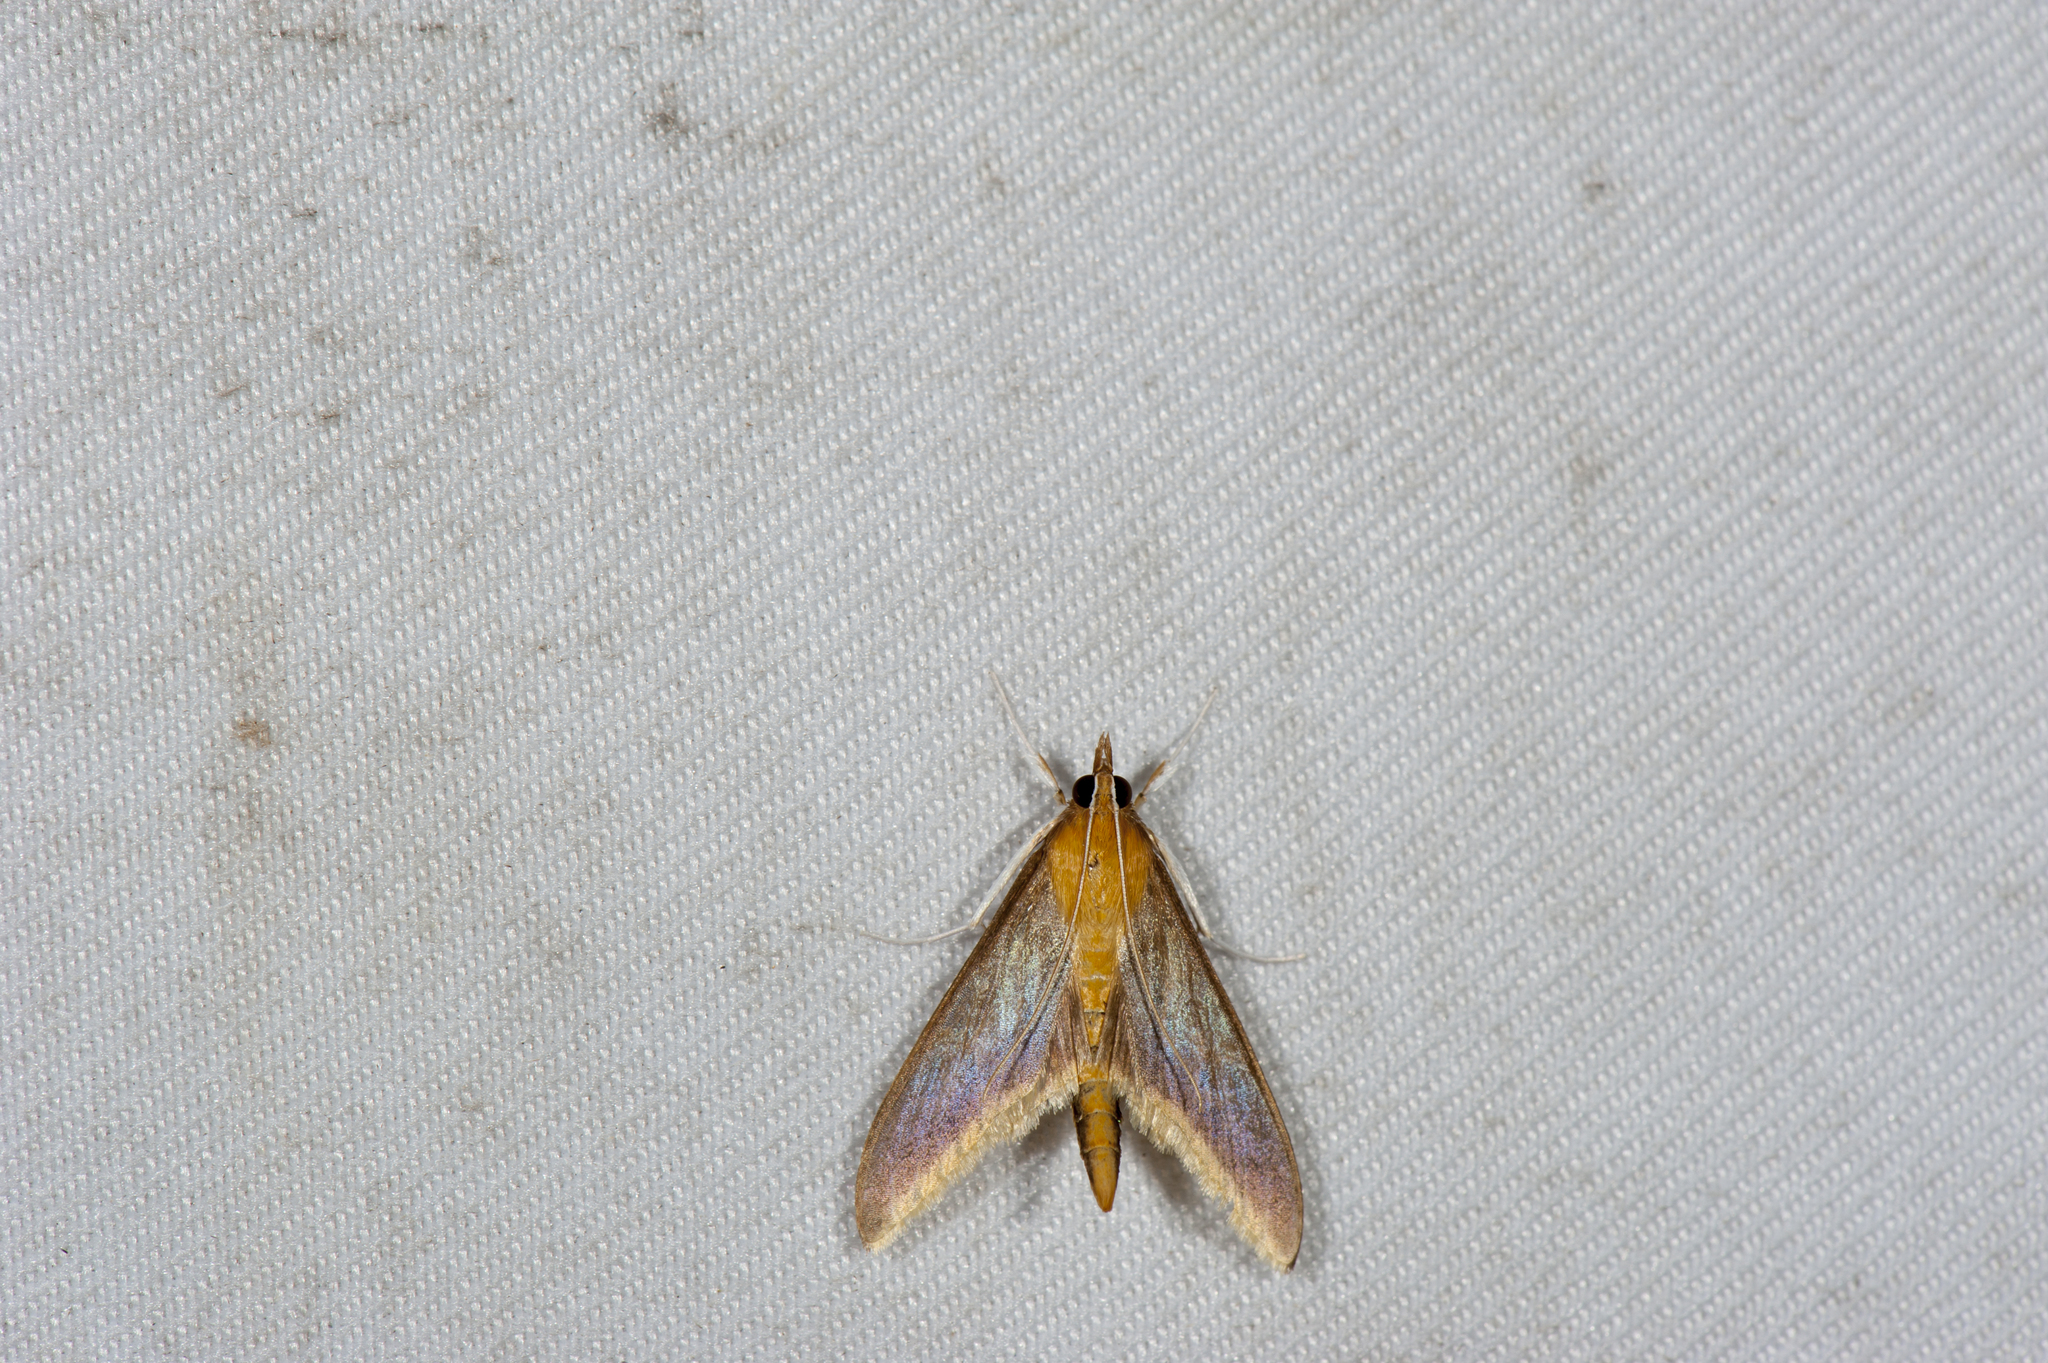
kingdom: Animalia
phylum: Arthropoda
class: Insecta
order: Lepidoptera
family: Crambidae
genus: Circobotys
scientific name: Circobotys aurealis
